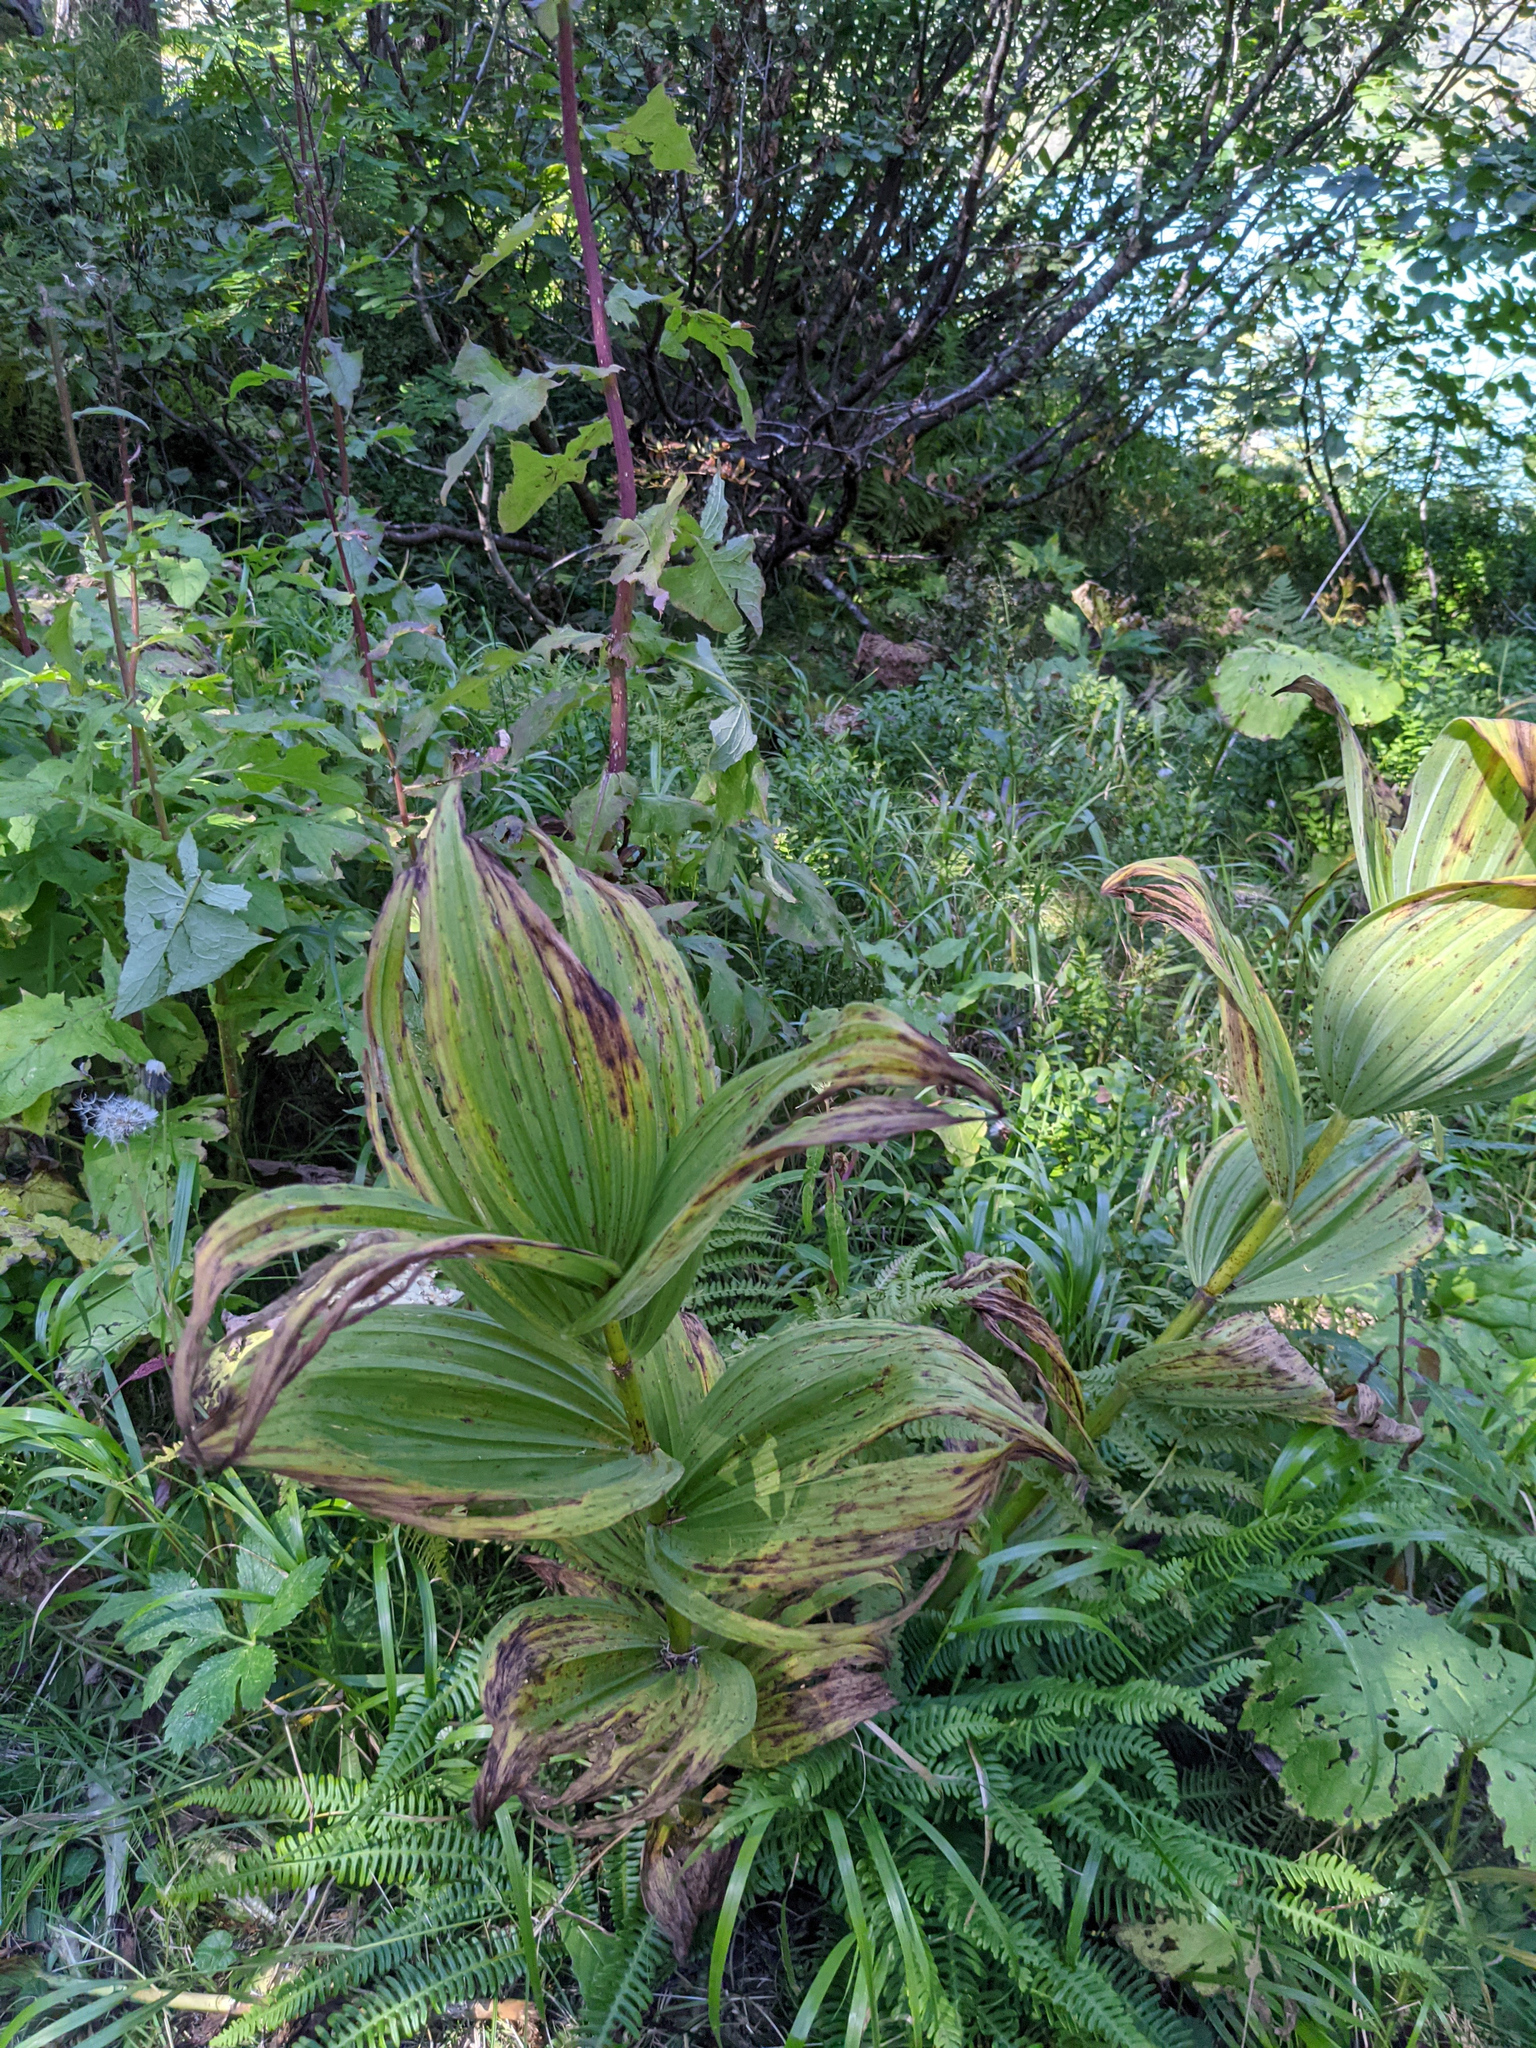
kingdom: Plantae
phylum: Tracheophyta
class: Liliopsida
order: Liliales
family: Melanthiaceae
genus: Veratrum
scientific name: Veratrum
